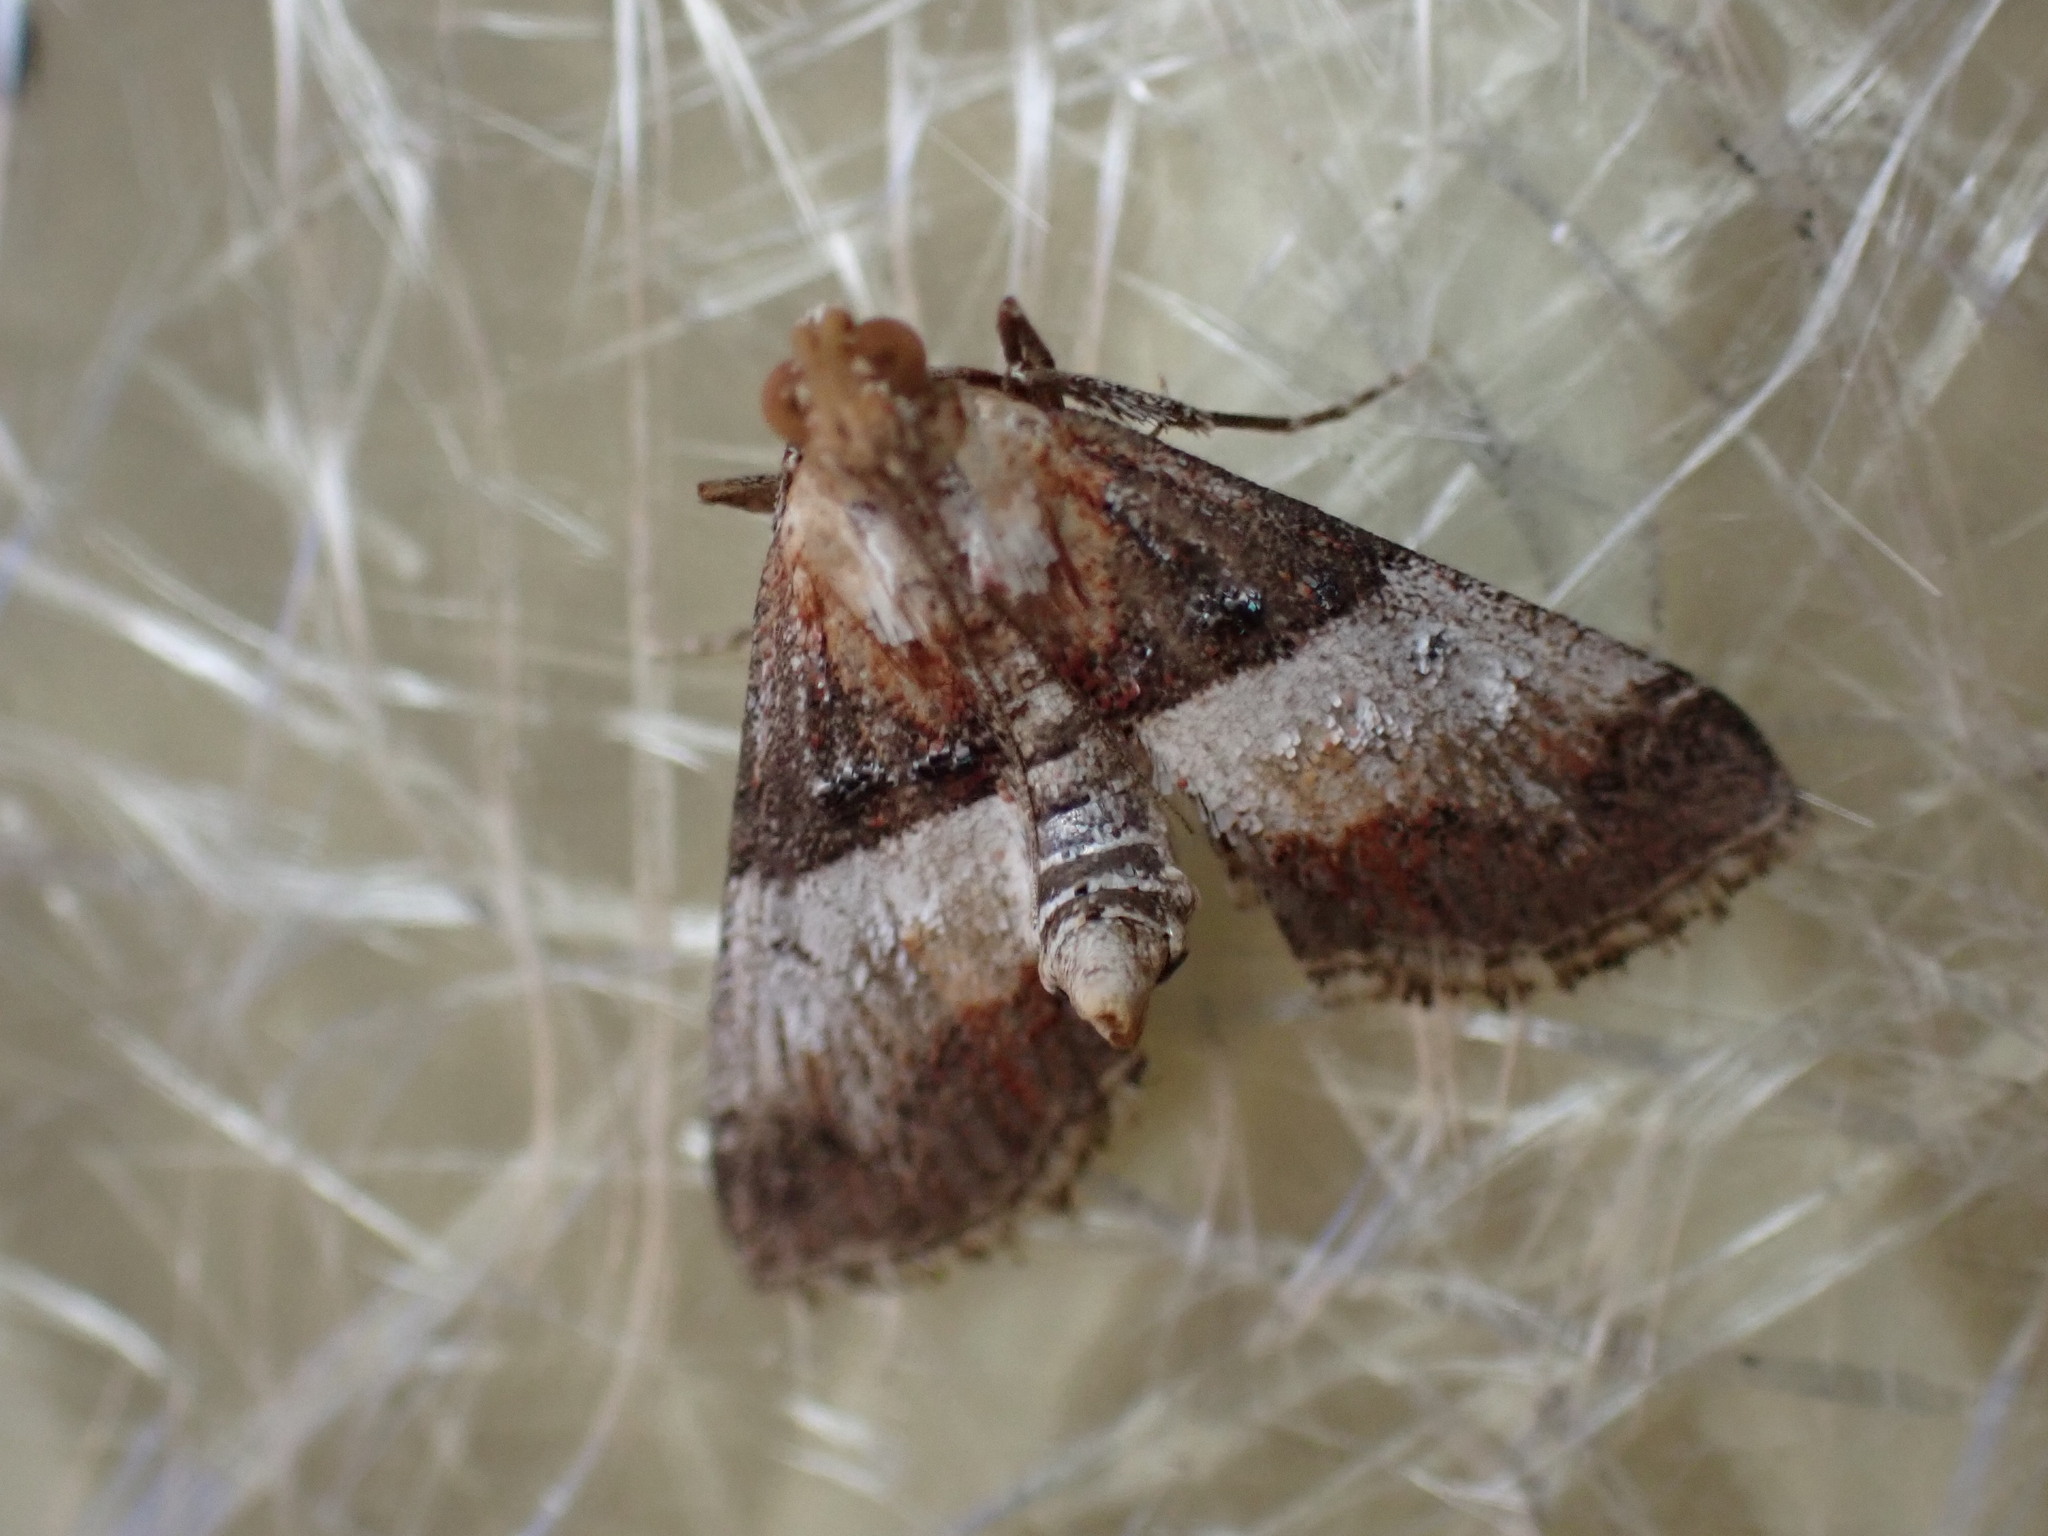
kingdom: Animalia
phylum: Arthropoda
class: Insecta
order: Lepidoptera
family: Pyralidae
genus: Toripalpus
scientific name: Toripalpus trabalis
